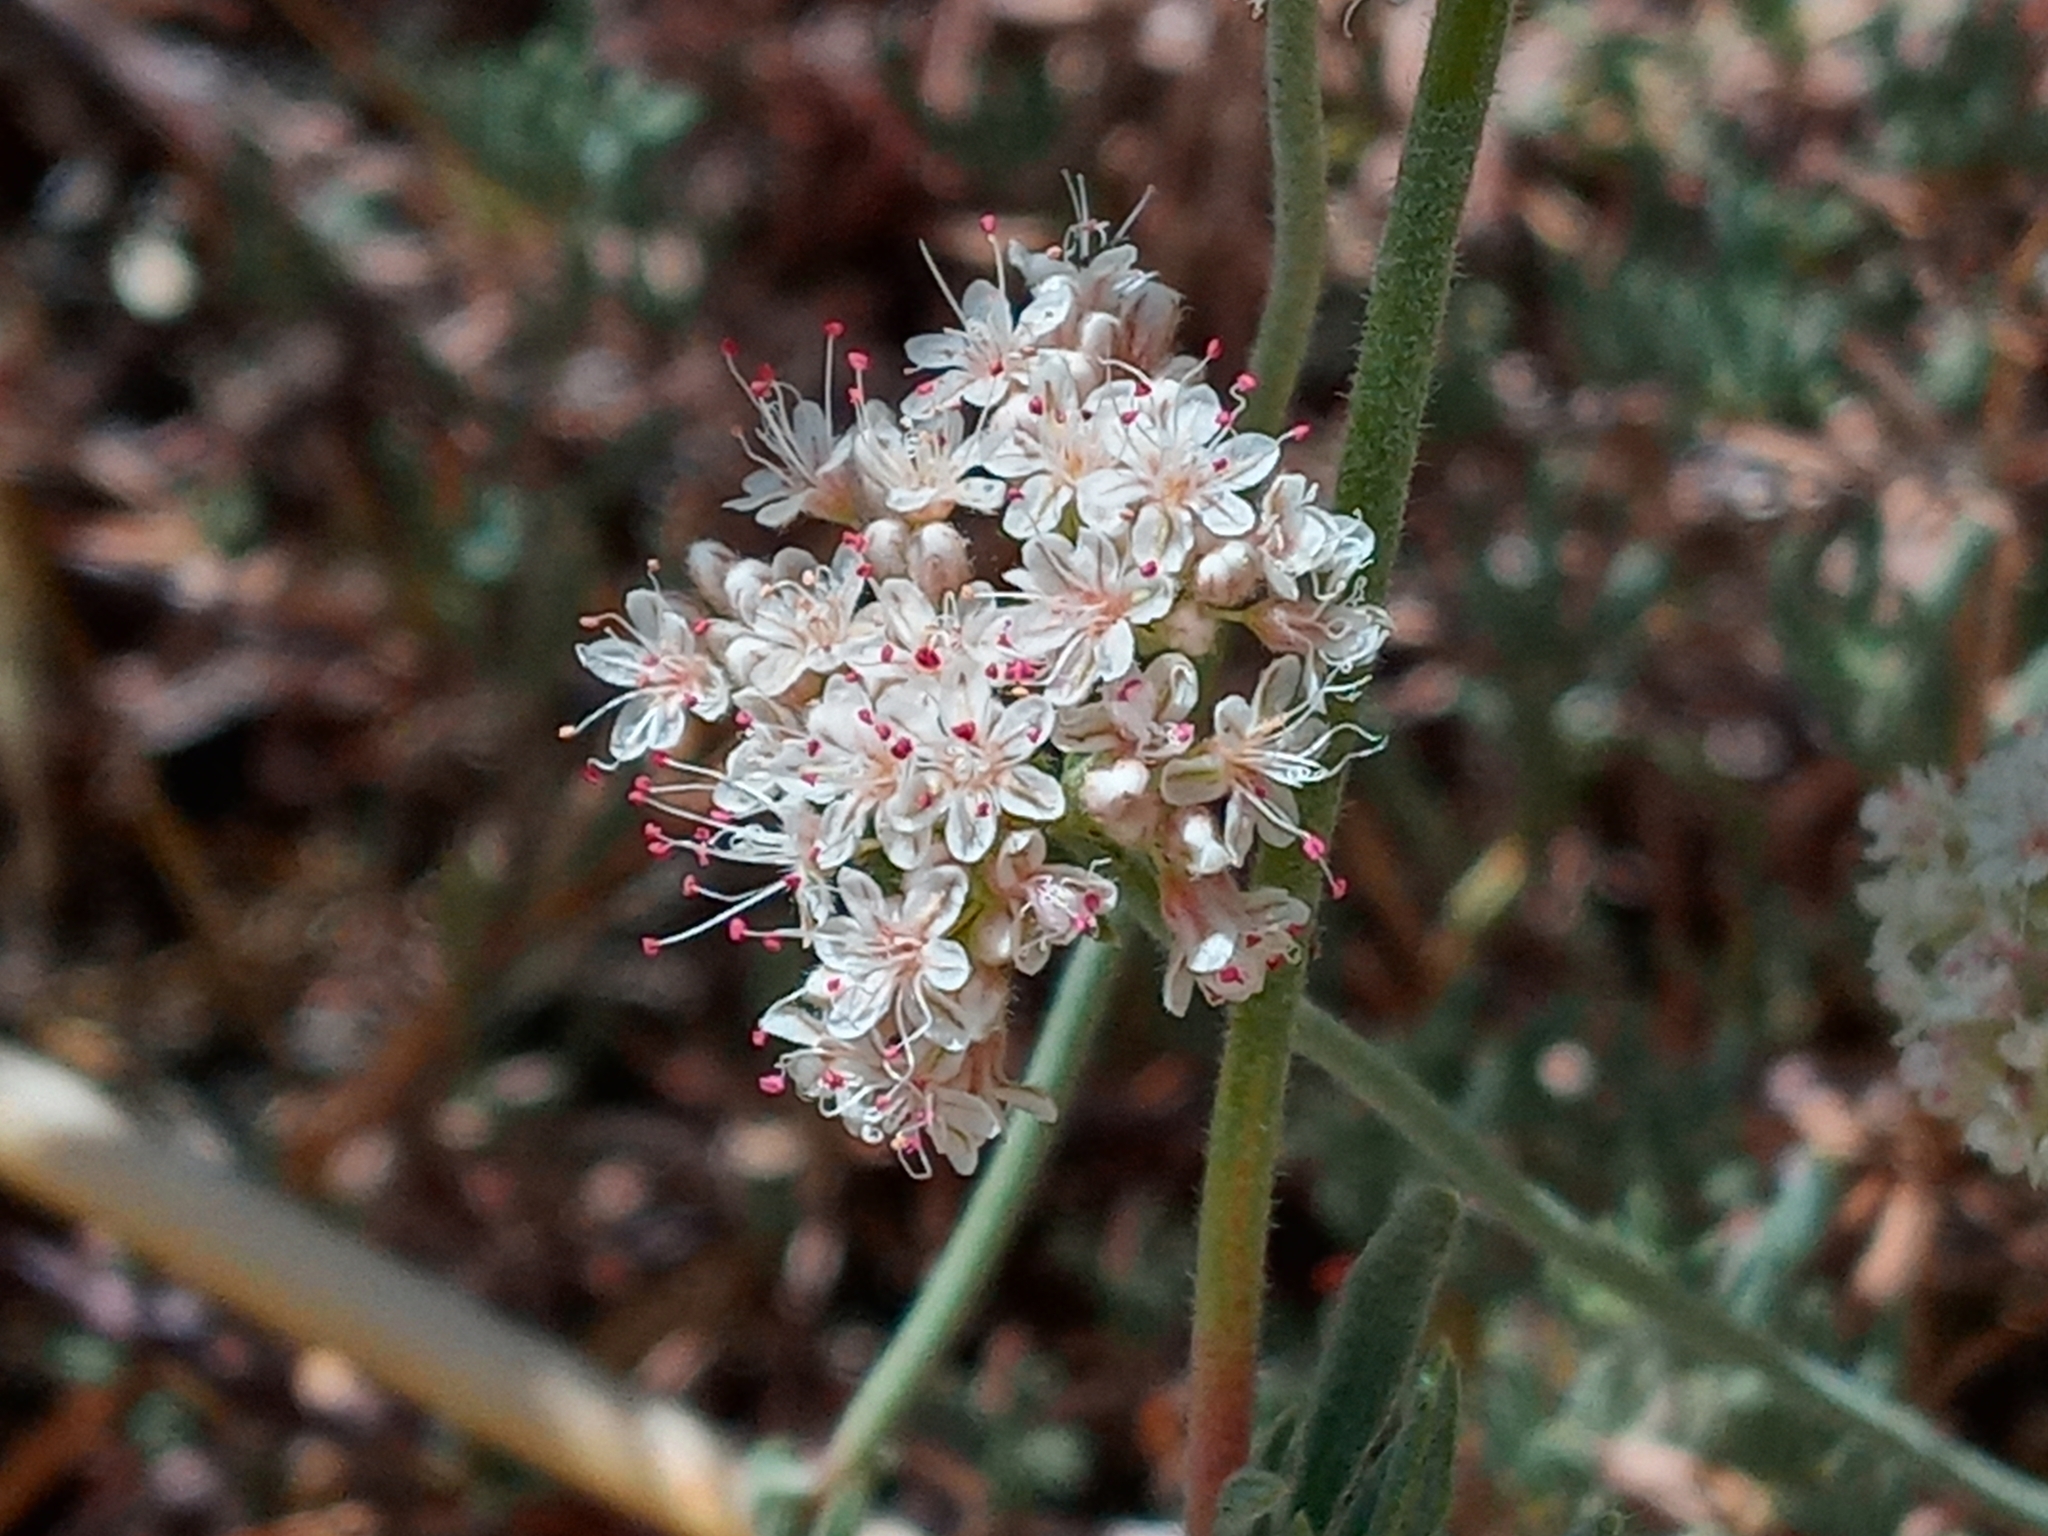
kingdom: Plantae
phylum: Tracheophyta
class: Magnoliopsida
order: Caryophyllales
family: Polygonaceae
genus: Eriogonum
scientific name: Eriogonum fasciculatum
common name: California wild buckwheat
